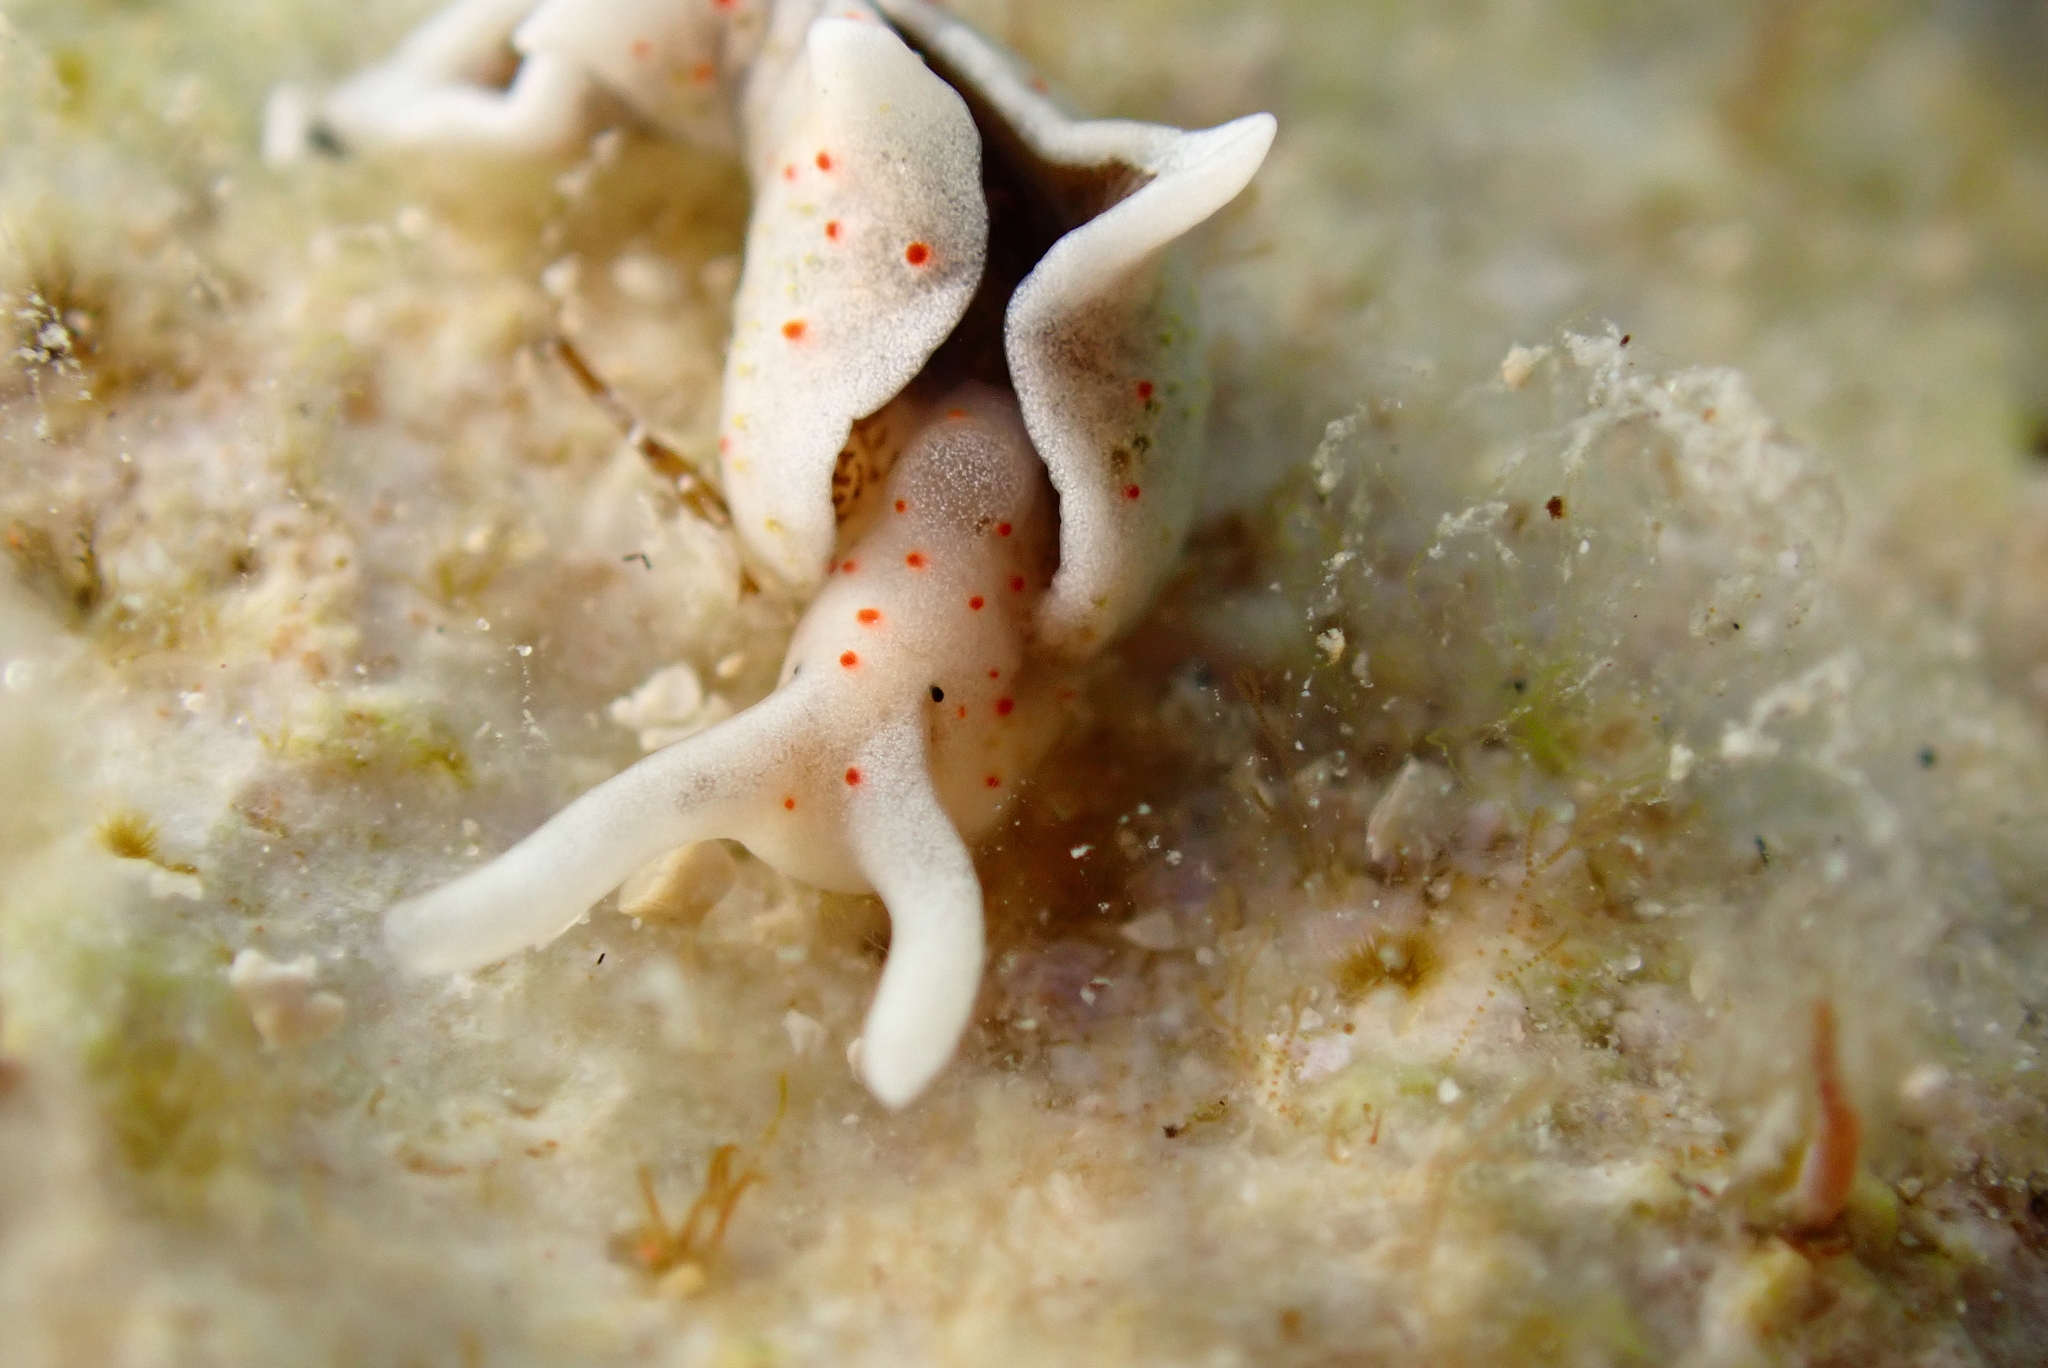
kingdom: Animalia
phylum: Mollusca
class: Gastropoda
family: Plakobranchidae
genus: Elysia
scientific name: Elysia timida
